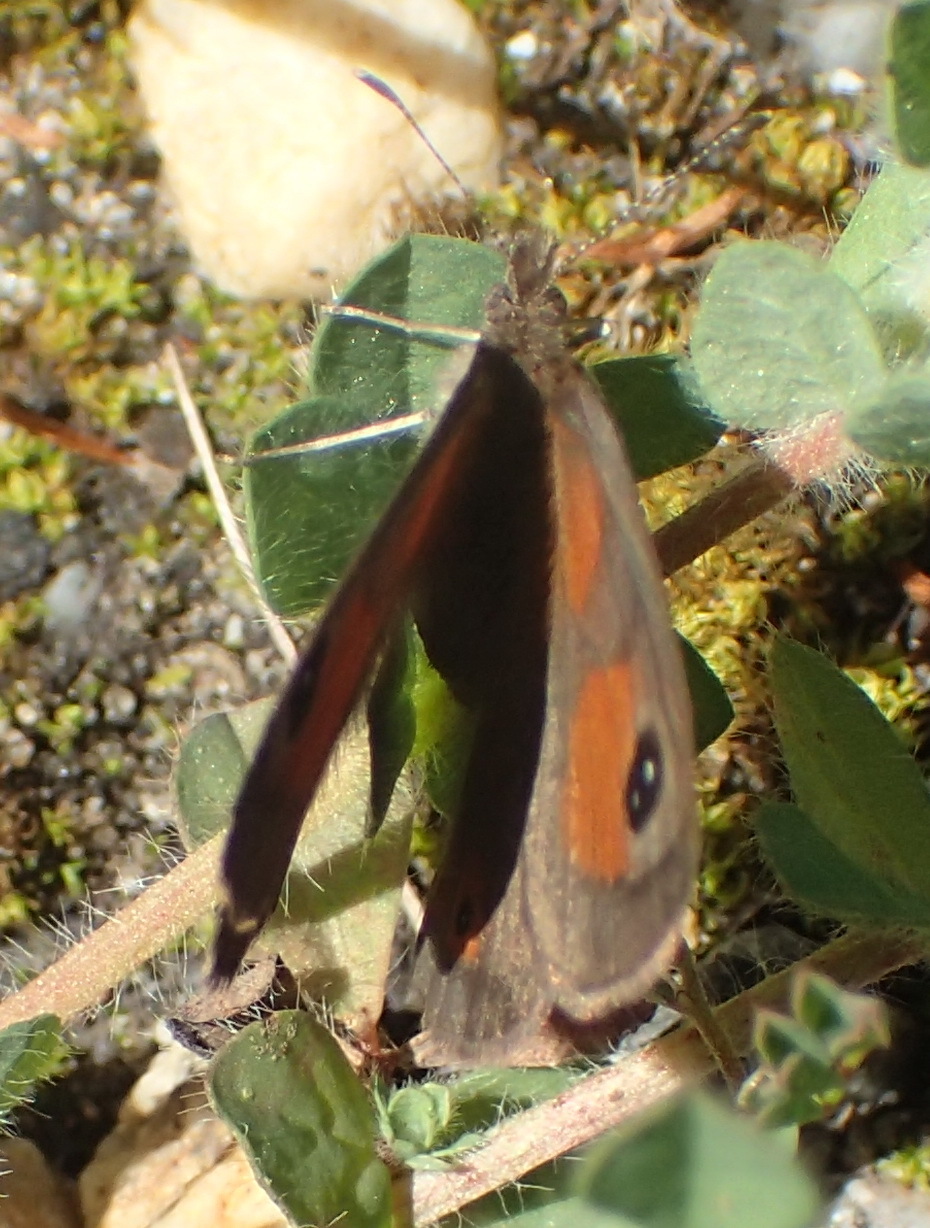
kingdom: Animalia
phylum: Arthropoda
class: Insecta
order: Lepidoptera
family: Nymphalidae
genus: Pseudonympha
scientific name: Pseudonympha magus
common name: Silver-bottom brown
